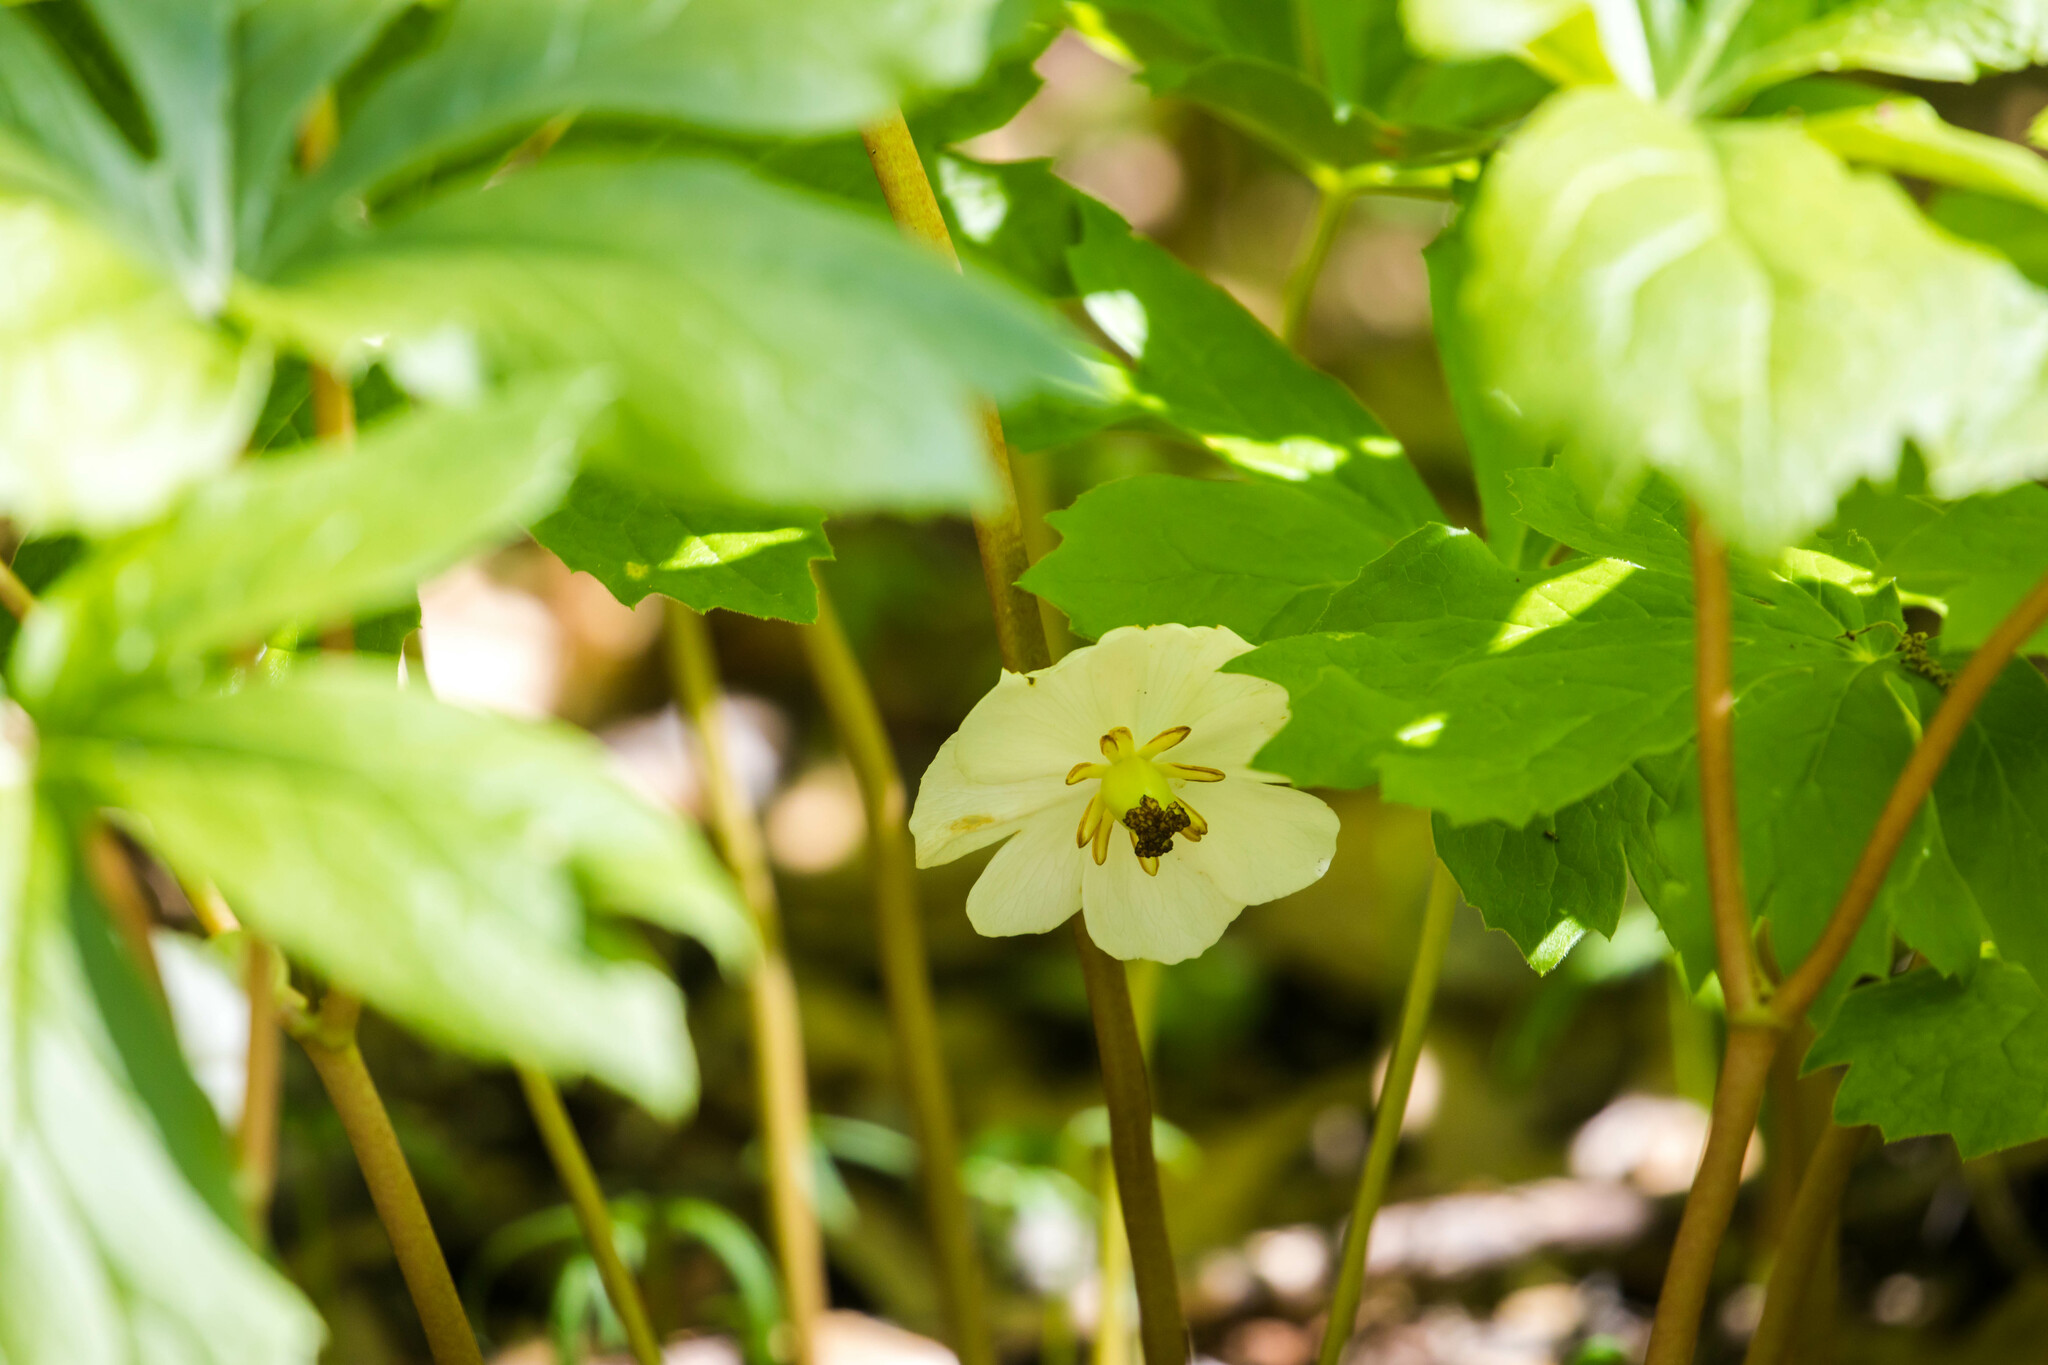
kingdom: Plantae
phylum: Tracheophyta
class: Magnoliopsida
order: Ranunculales
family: Berberidaceae
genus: Podophyllum
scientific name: Podophyllum peltatum
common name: Wild mandrake
